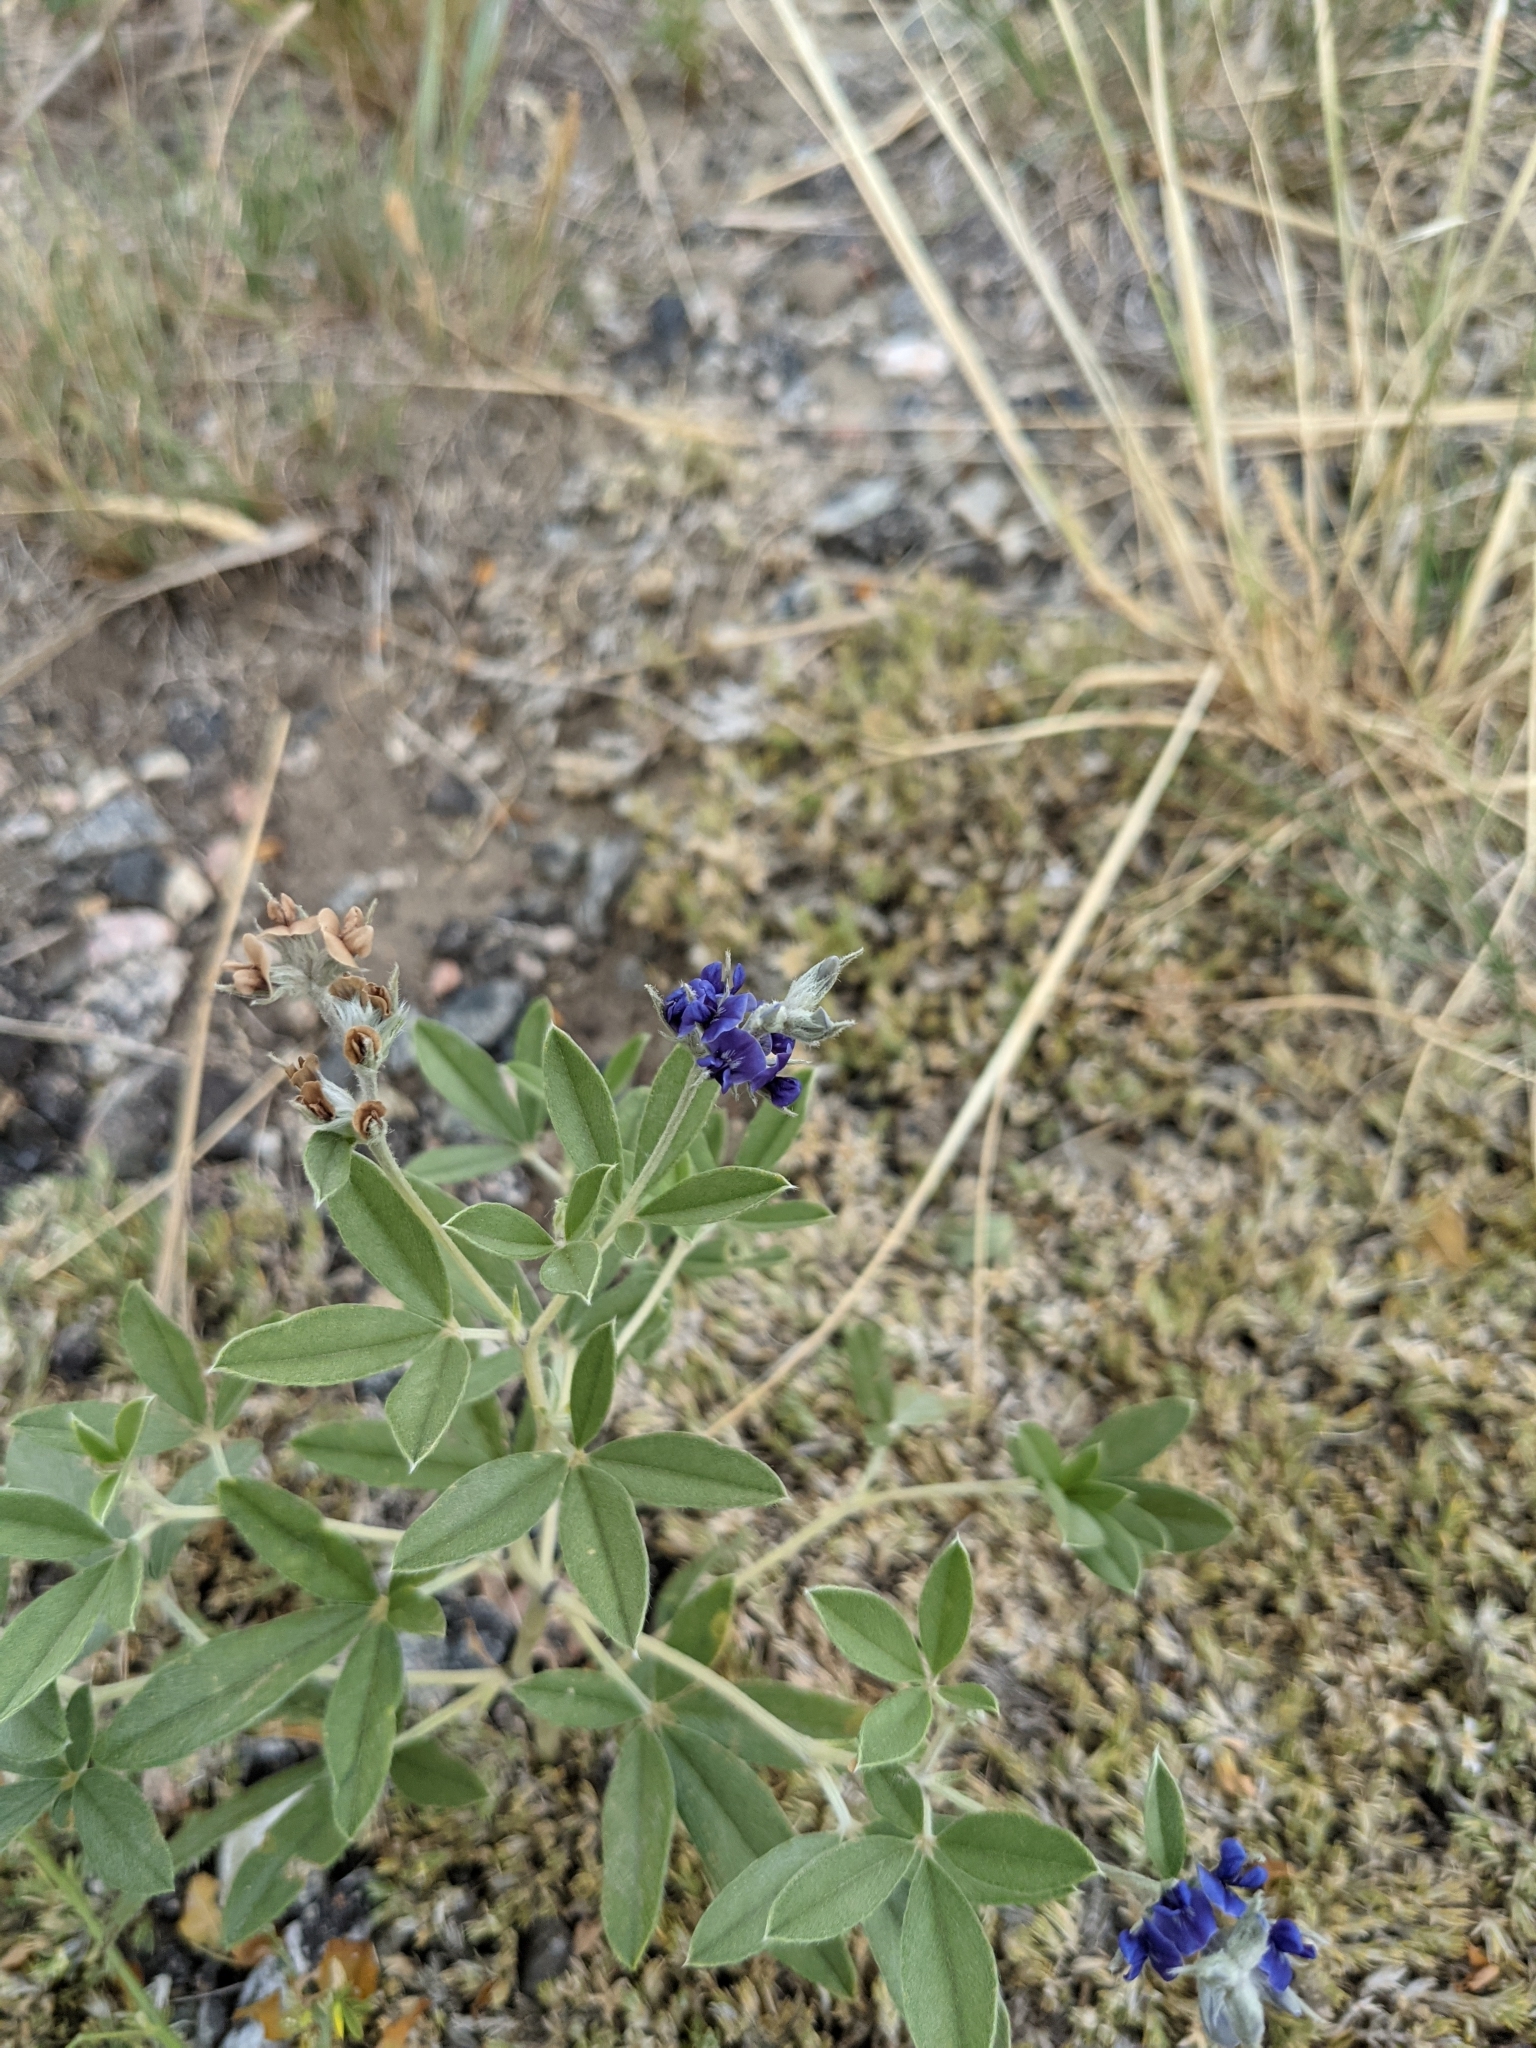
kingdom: Plantae
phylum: Tracheophyta
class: Magnoliopsida
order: Fabales
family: Fabaceae
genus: Pediomelum
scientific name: Pediomelum argophyllum
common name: Silver-leaved indian breadroot
